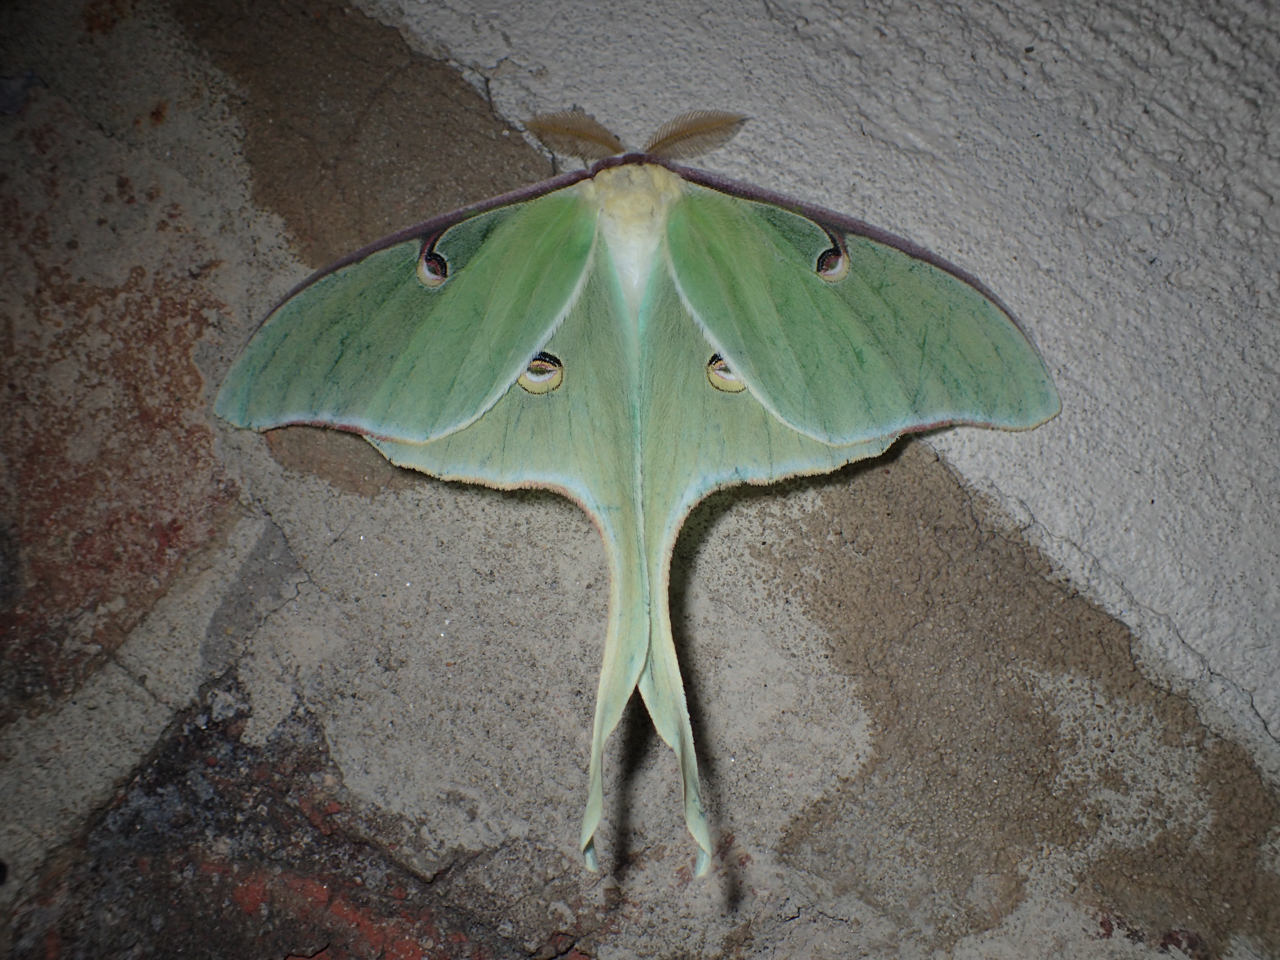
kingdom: Animalia
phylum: Arthropoda
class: Insecta
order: Lepidoptera
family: Saturniidae
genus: Actias
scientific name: Actias luna
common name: Luna moth
